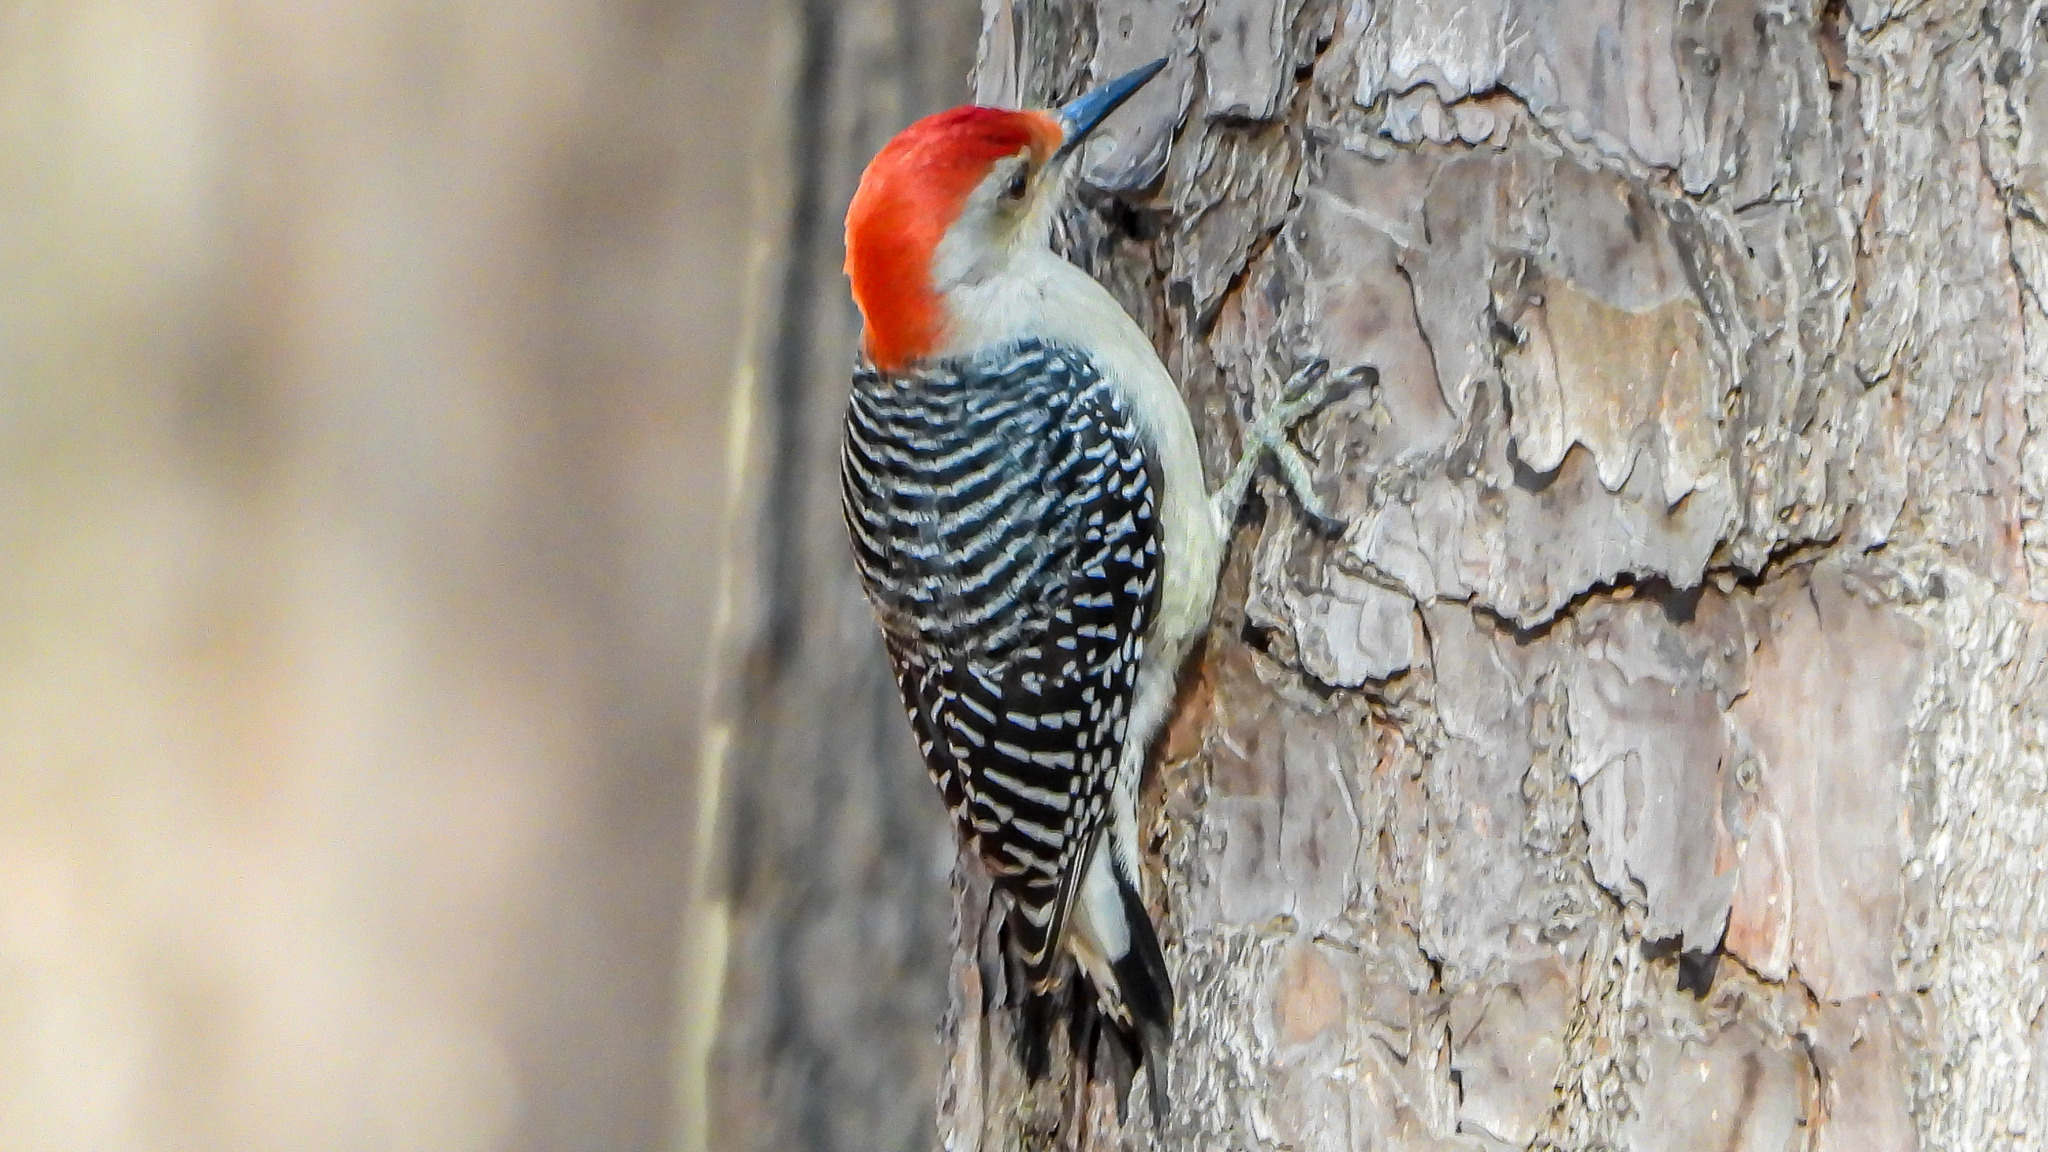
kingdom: Animalia
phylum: Chordata
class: Aves
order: Piciformes
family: Picidae
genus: Melanerpes
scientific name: Melanerpes carolinus
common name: Red-bellied woodpecker
